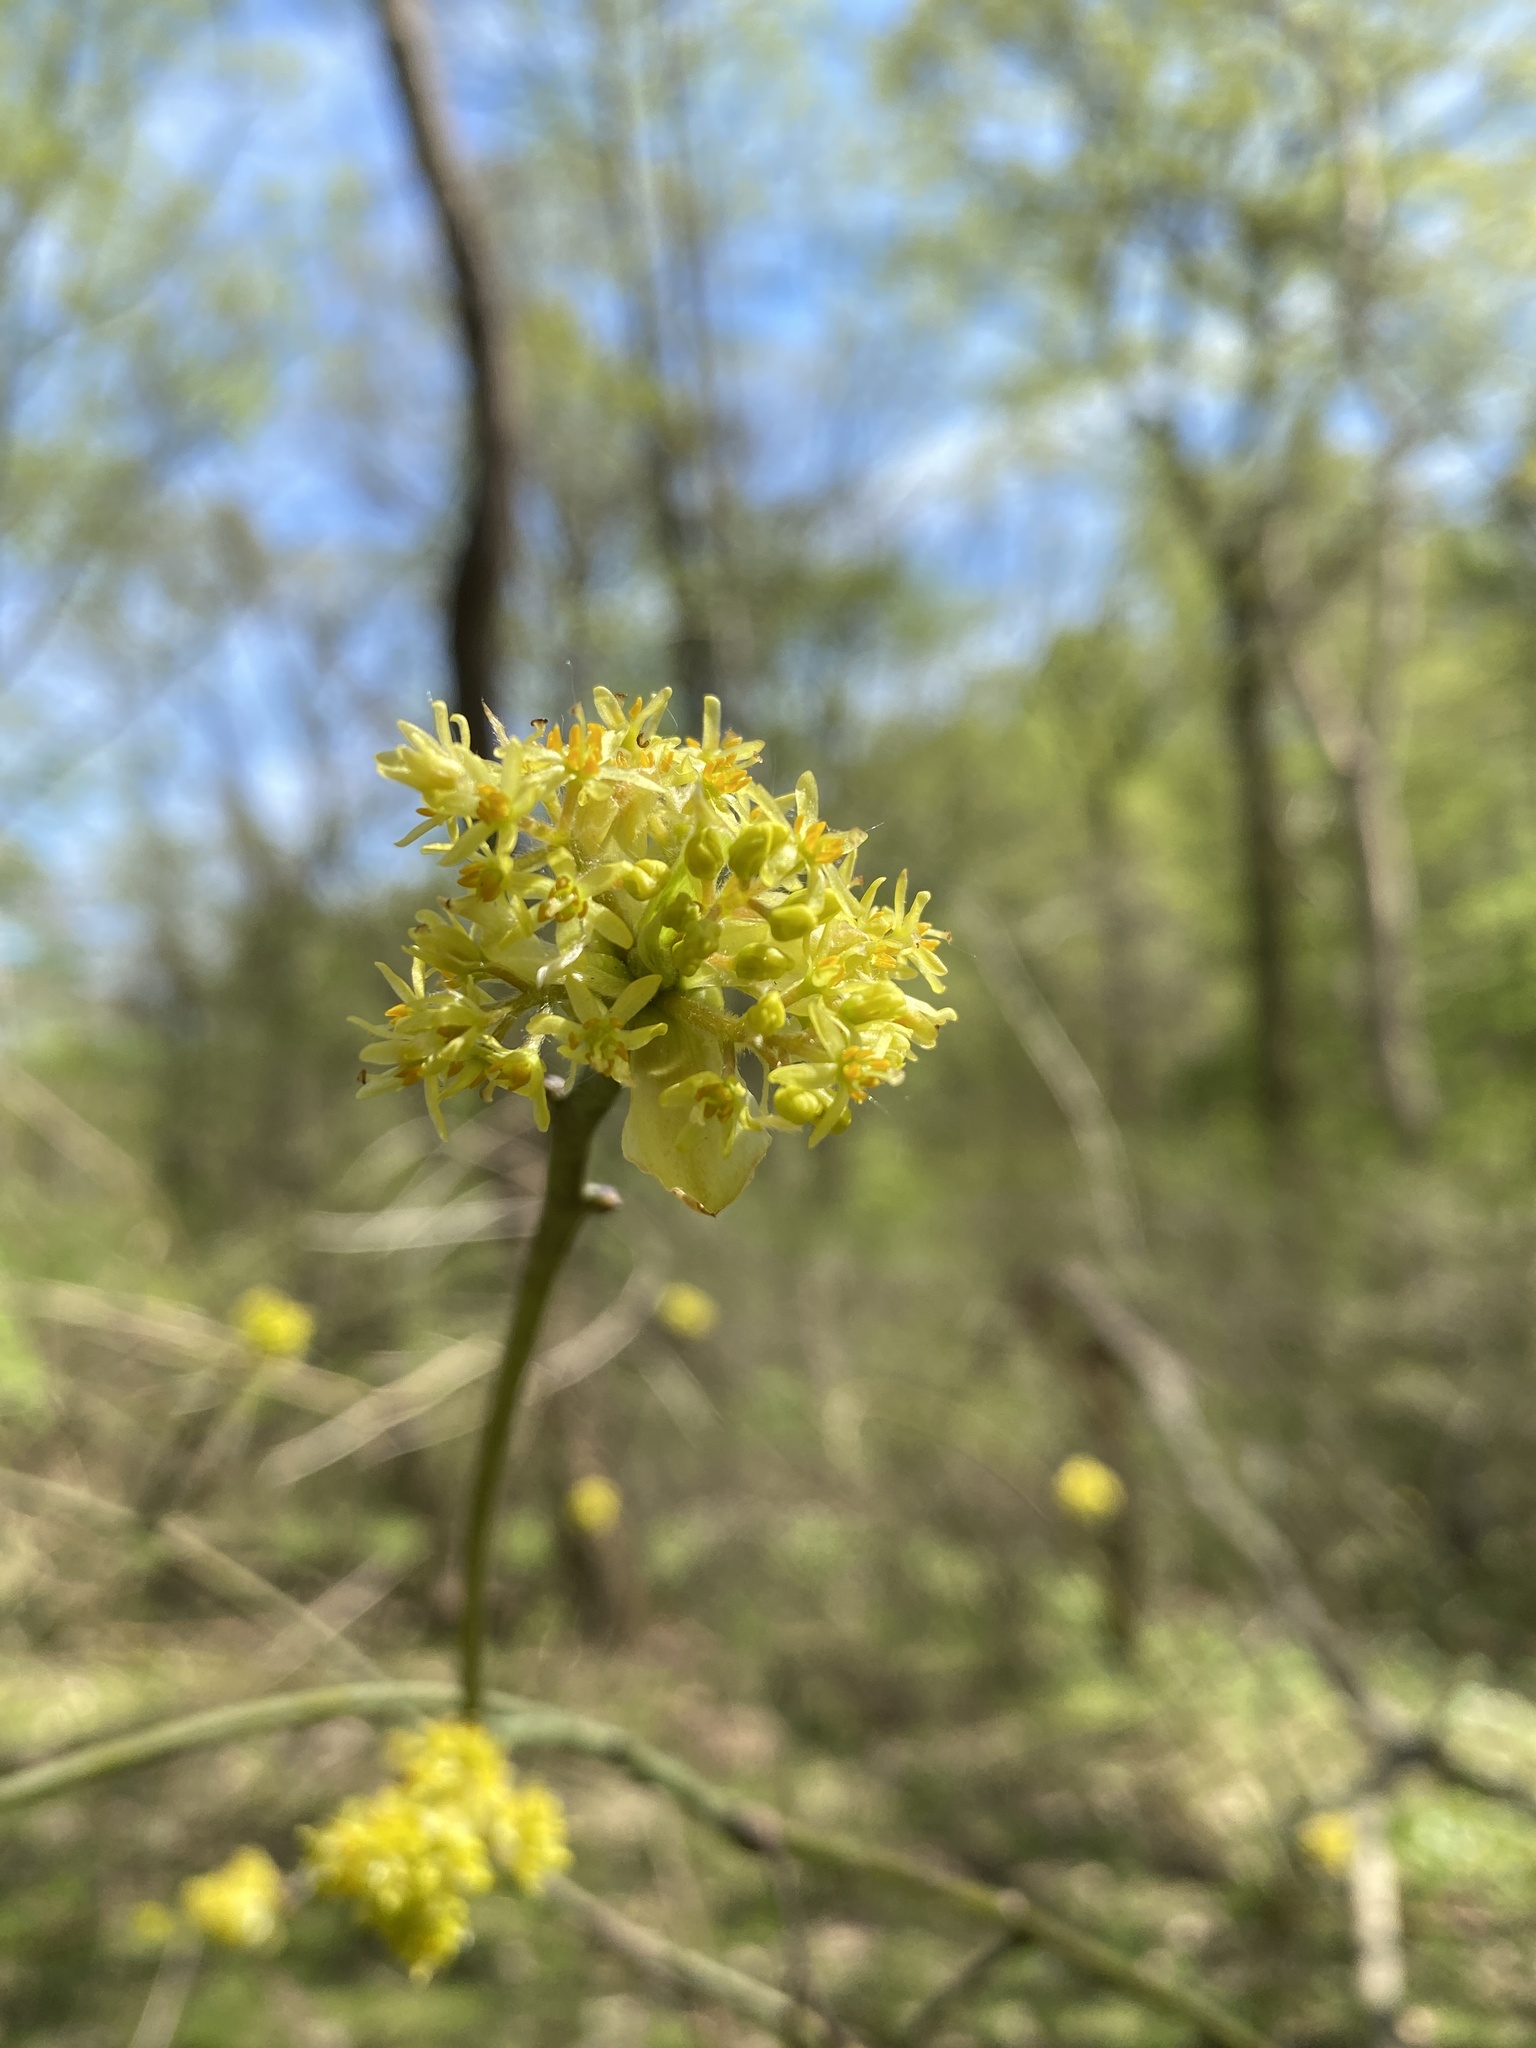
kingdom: Plantae
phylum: Tracheophyta
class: Magnoliopsida
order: Laurales
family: Lauraceae
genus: Sassafras
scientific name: Sassafras albidum
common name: Sassafras
